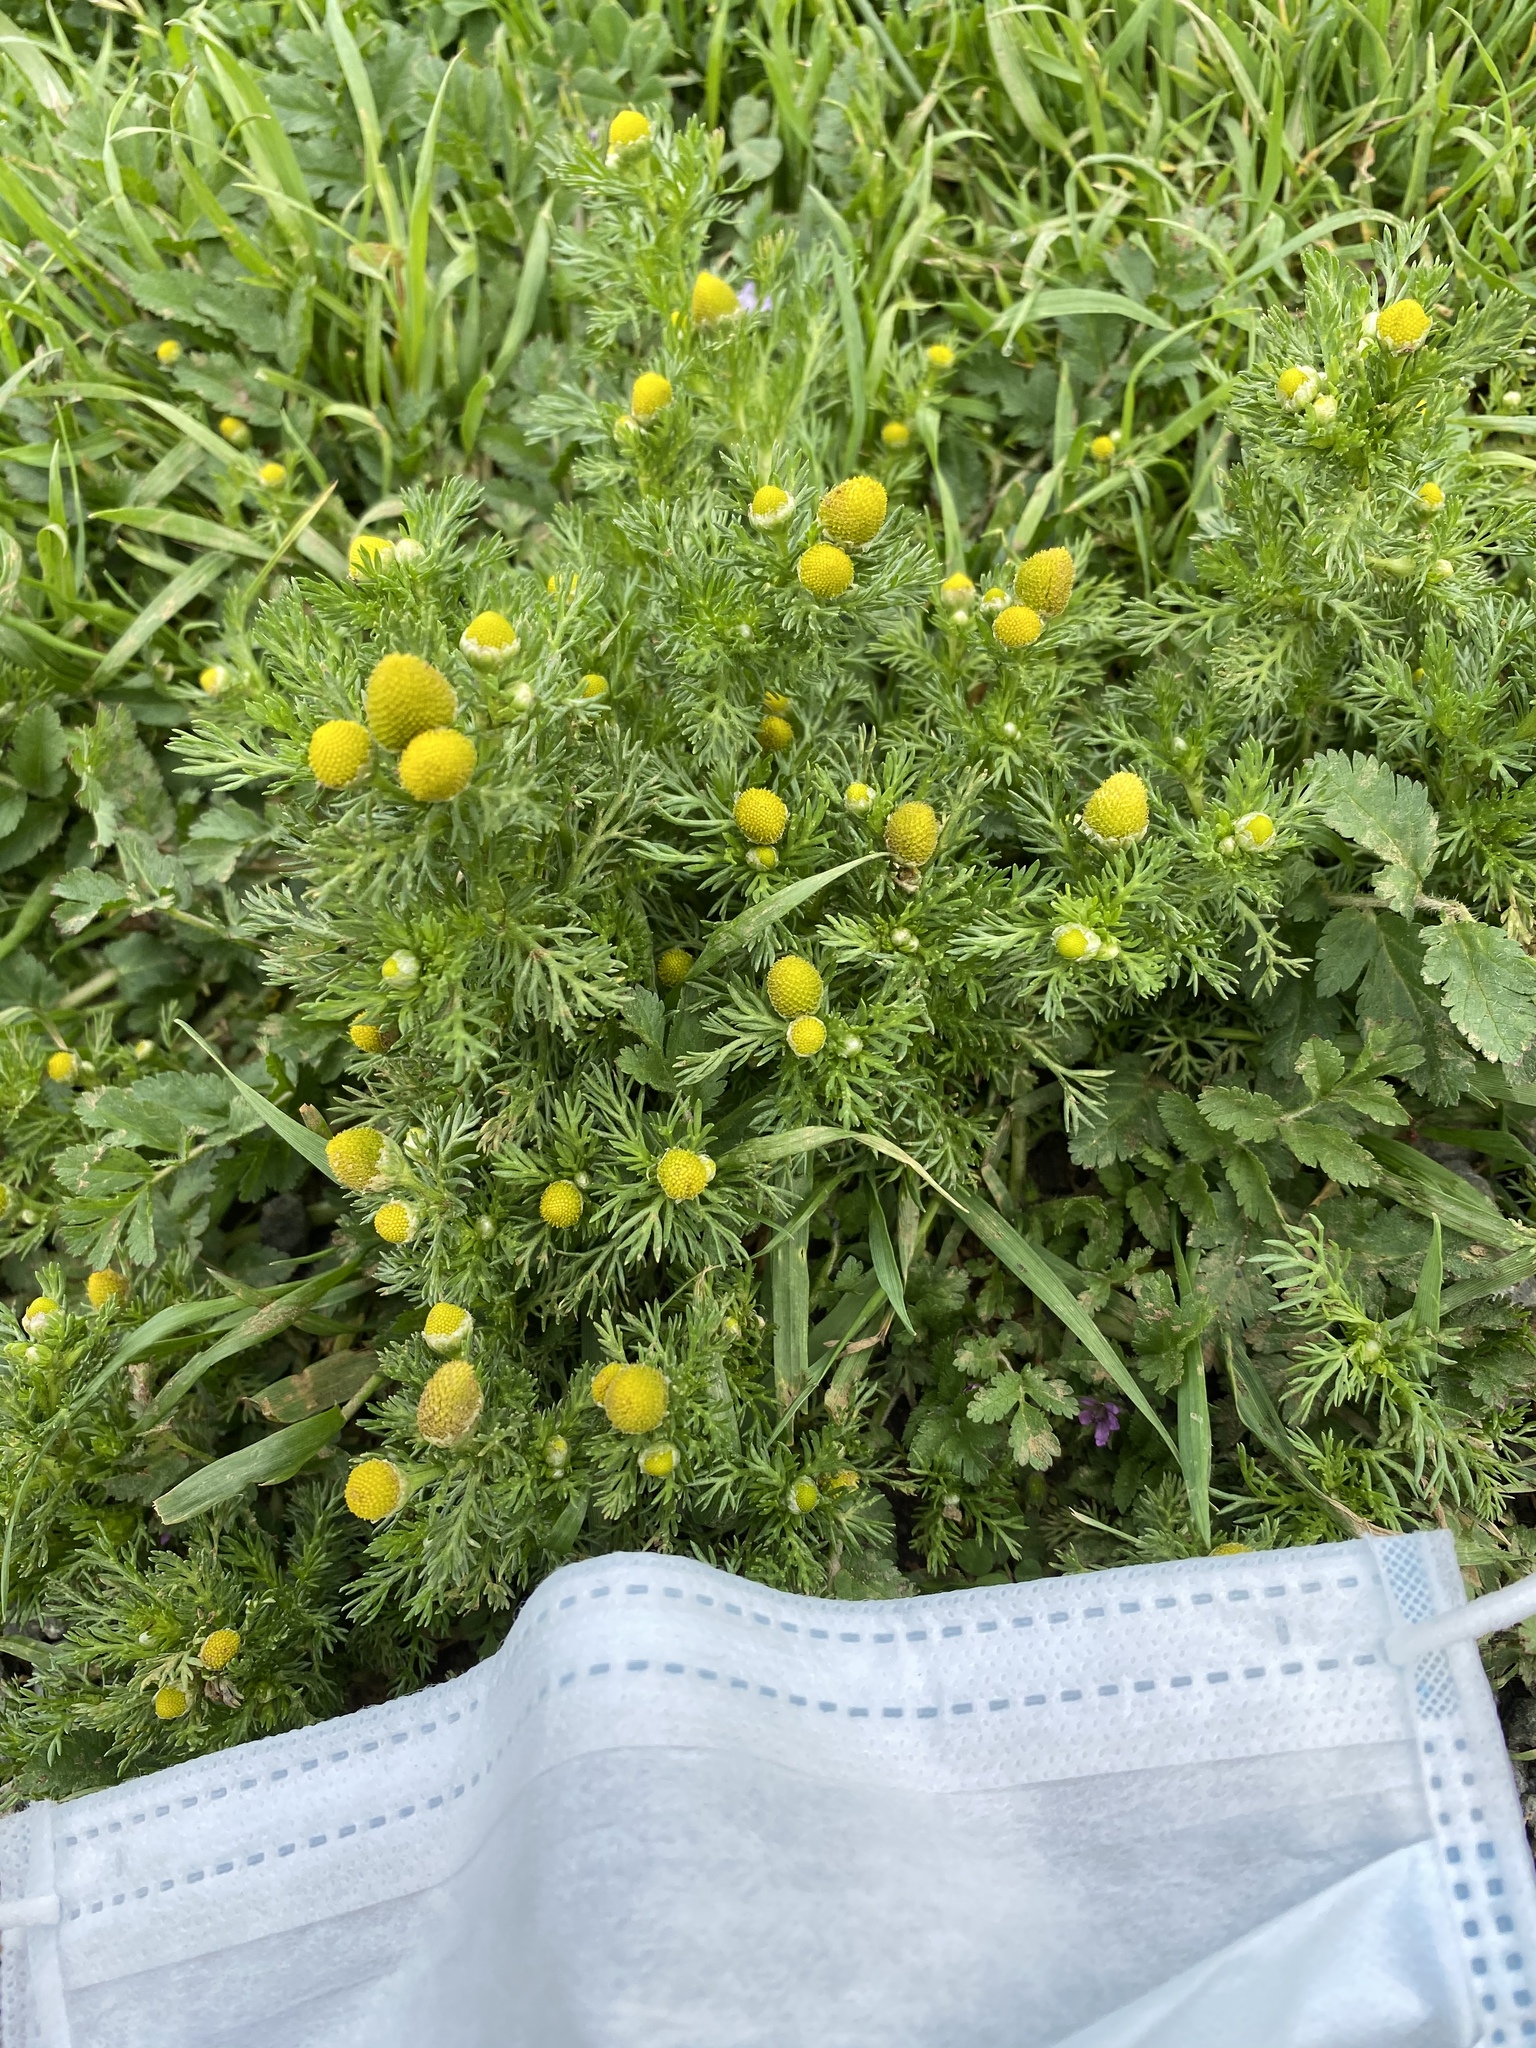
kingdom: Plantae
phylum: Tracheophyta
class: Magnoliopsida
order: Asterales
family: Asteraceae
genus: Matricaria
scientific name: Matricaria discoidea
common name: Disc mayweed
